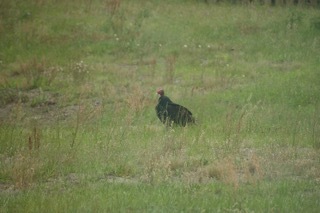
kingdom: Animalia
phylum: Chordata
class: Aves
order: Accipitriformes
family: Cathartidae
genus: Cathartes
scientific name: Cathartes aura
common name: Turkey vulture
